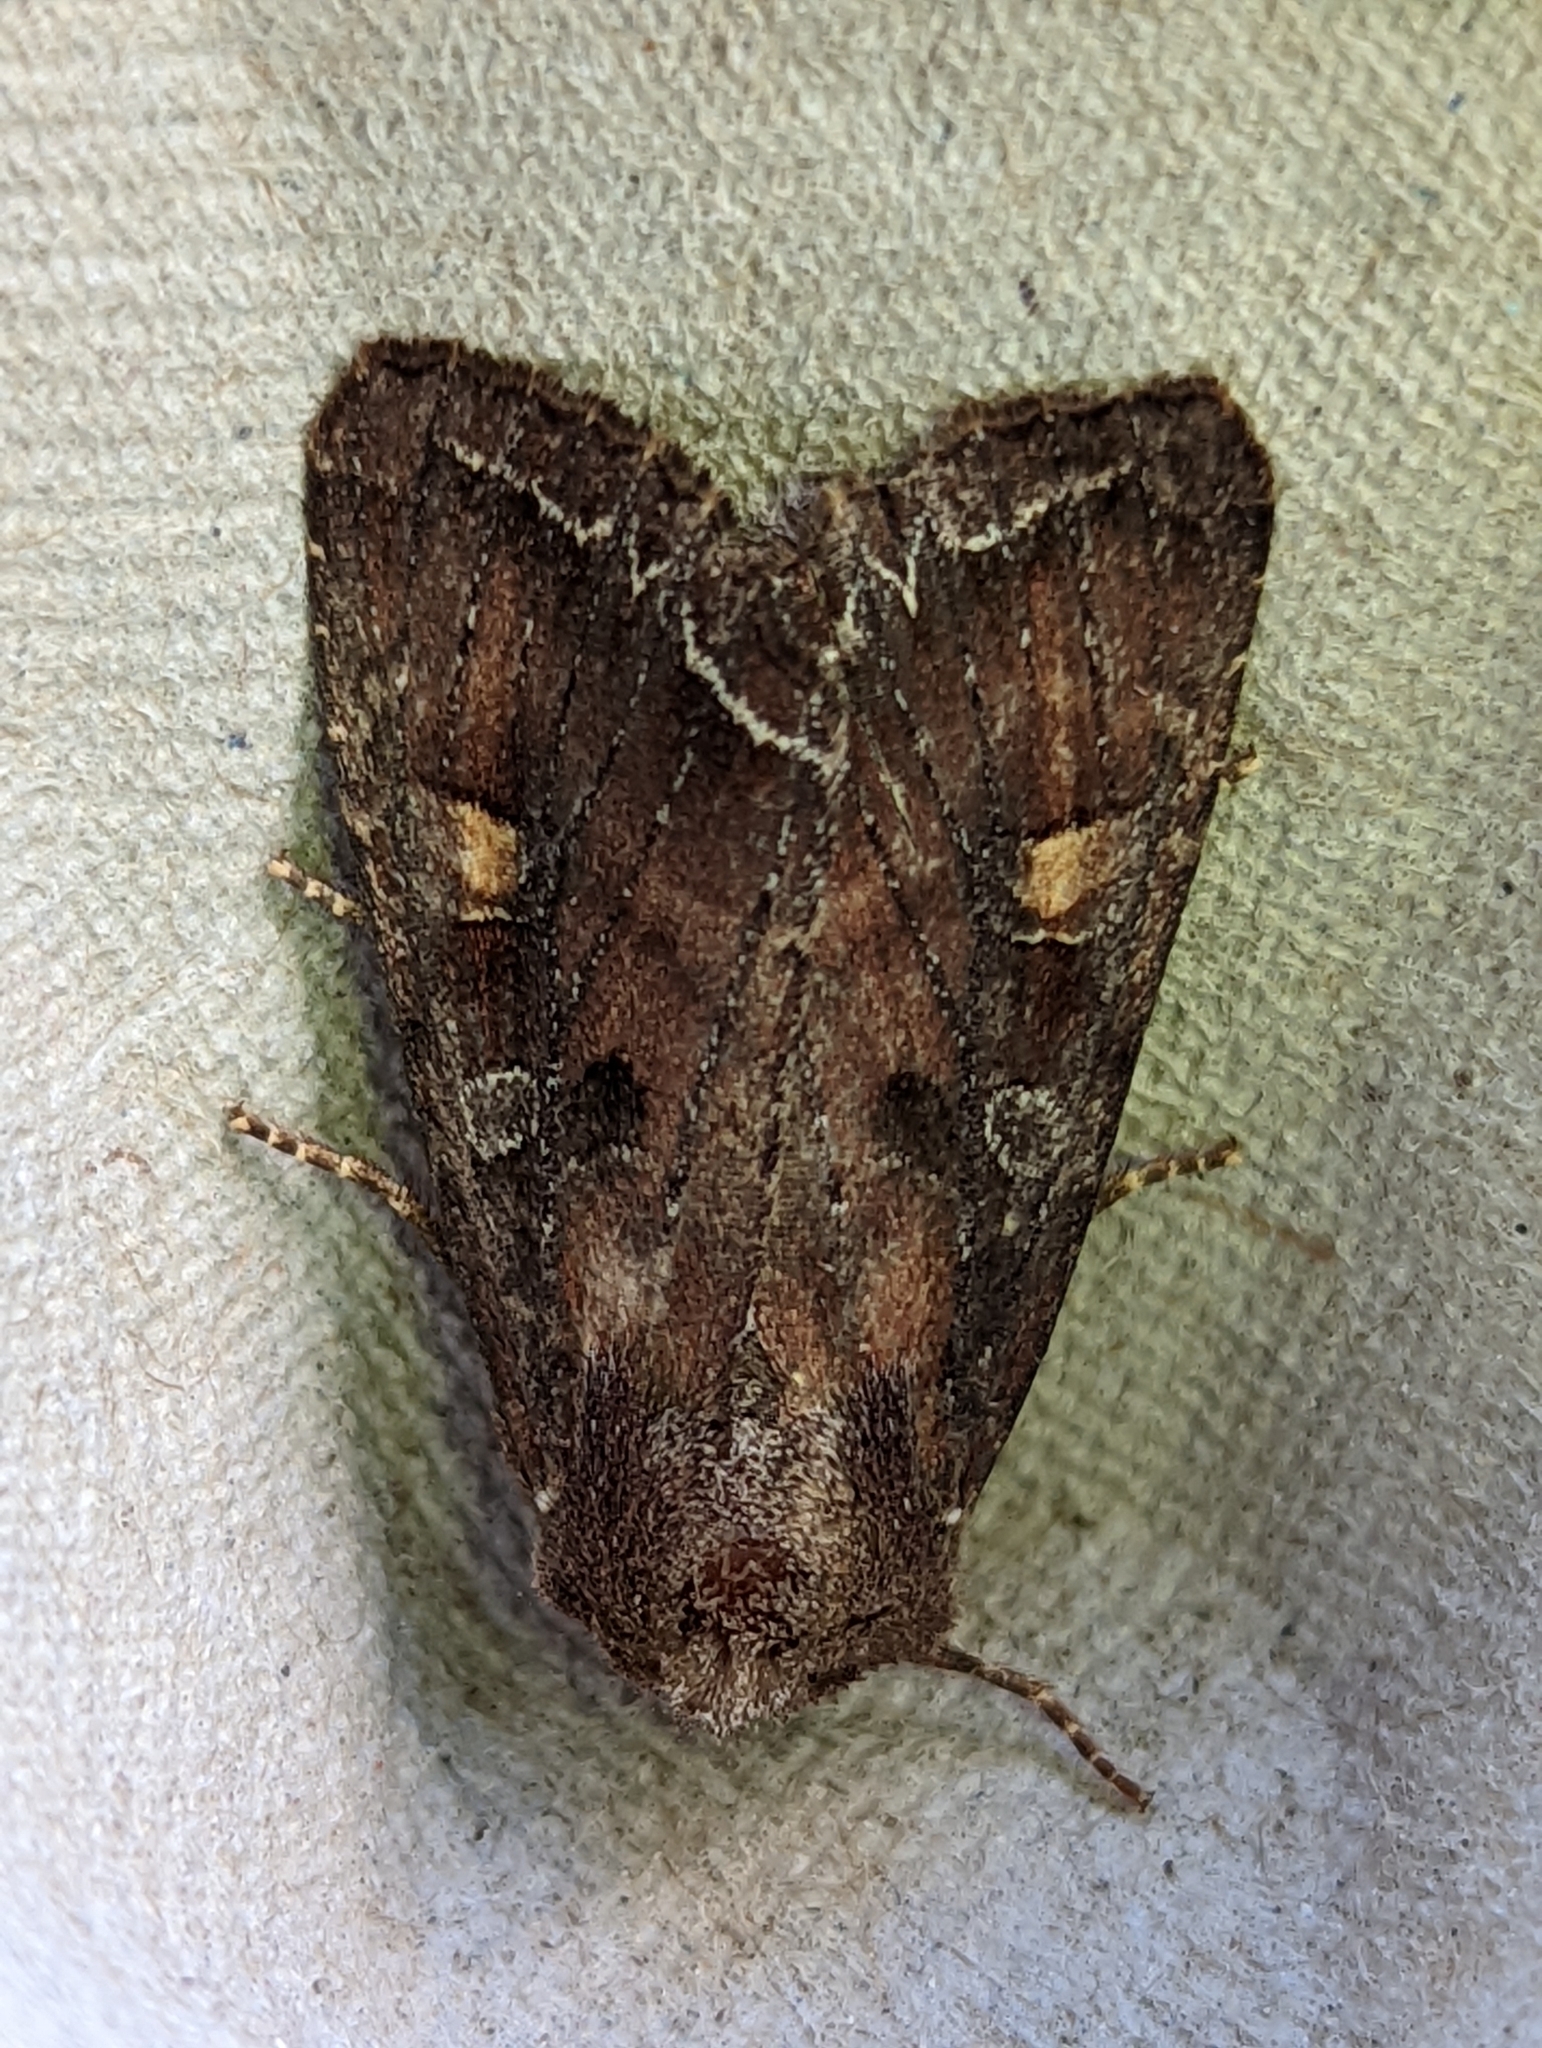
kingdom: Animalia
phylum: Arthropoda
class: Insecta
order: Lepidoptera
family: Noctuidae
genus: Lacanobia
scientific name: Lacanobia oleracea
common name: Bright-line brown-eye
